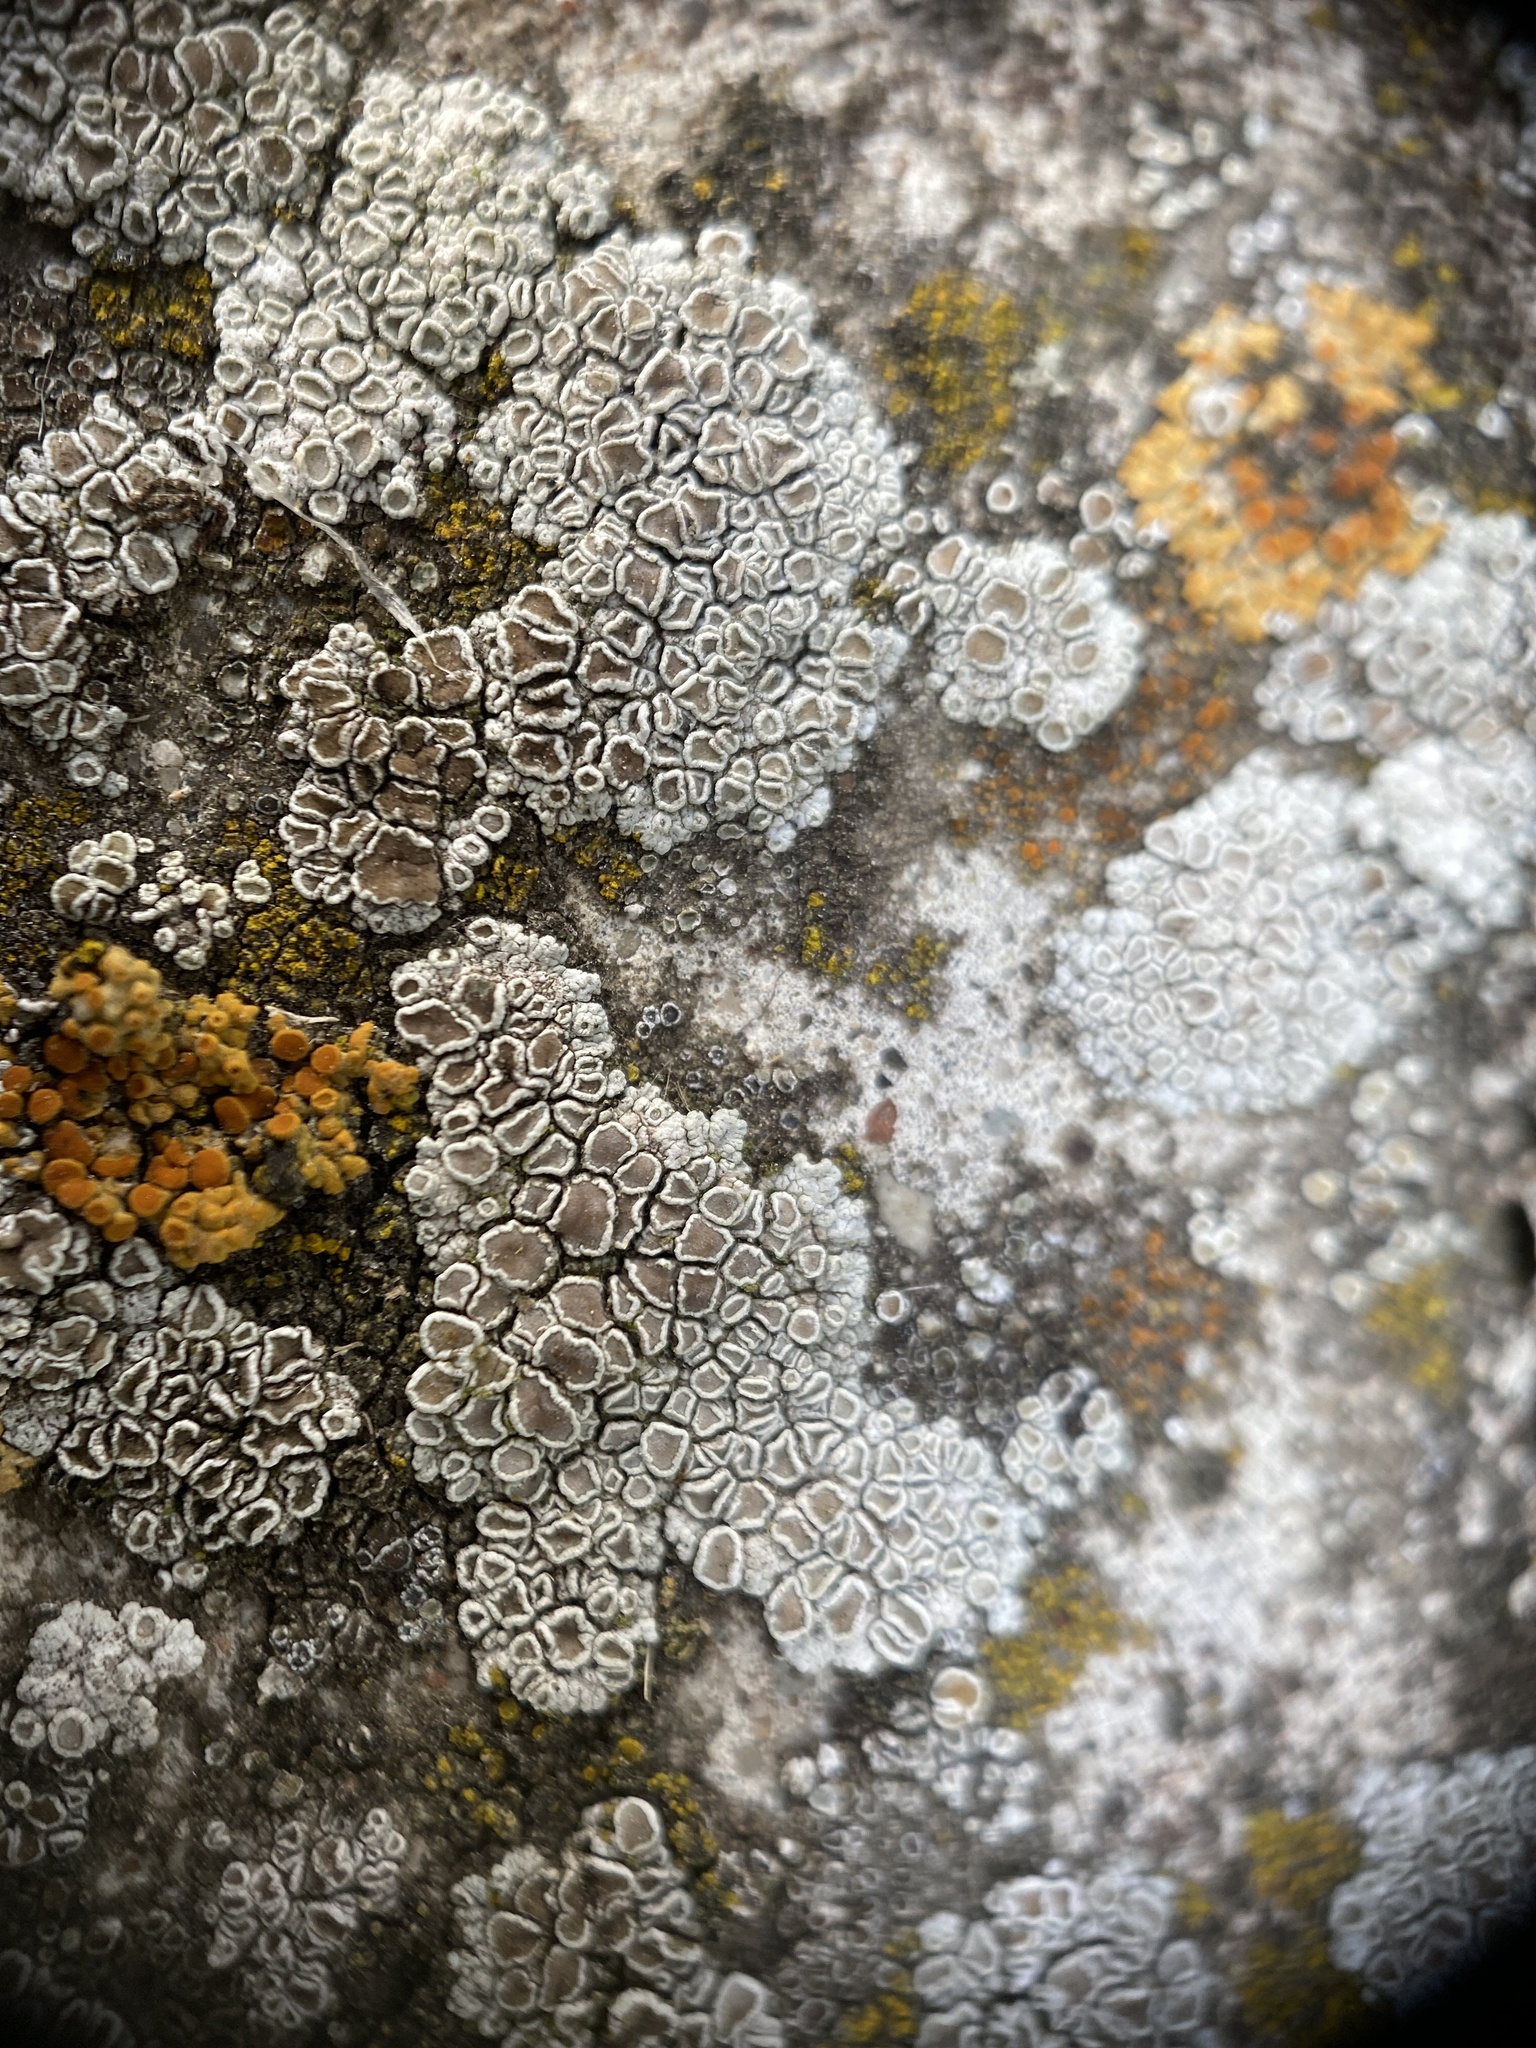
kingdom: Fungi
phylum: Ascomycota
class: Lecanoromycetes
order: Lecanorales
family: Lecanoraceae
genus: Polyozosia
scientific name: Polyozosia albescens
